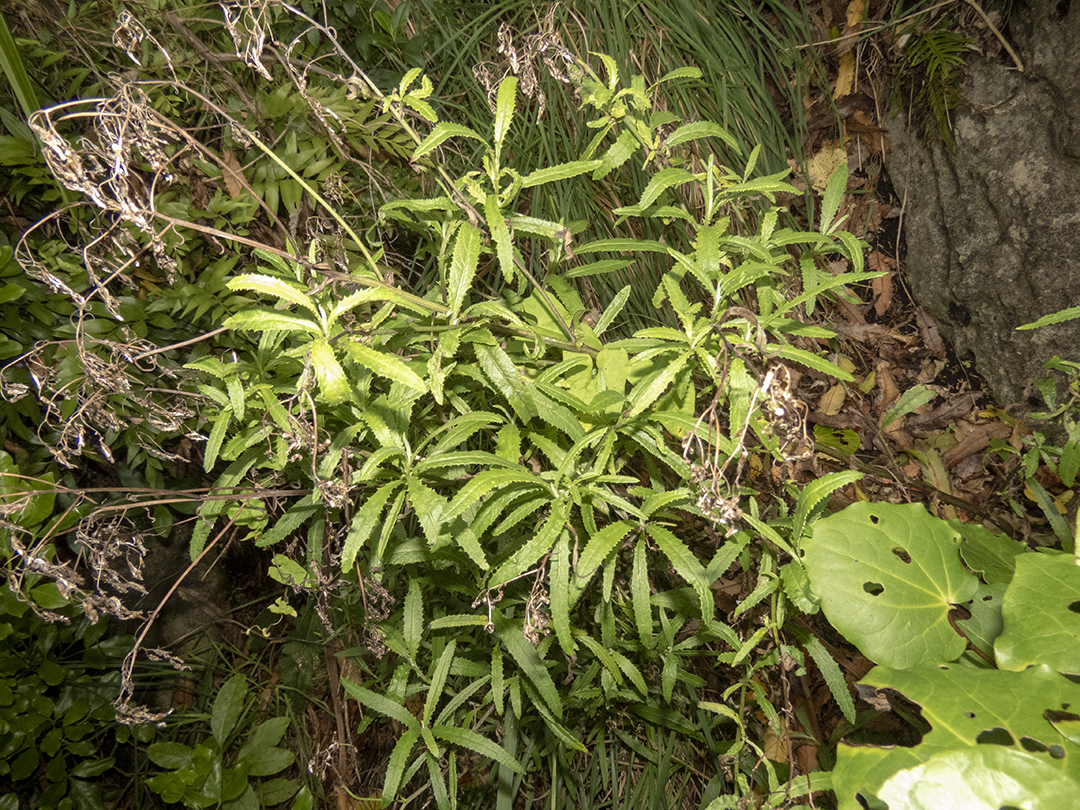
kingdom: Plantae
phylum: Tracheophyta
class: Magnoliopsida
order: Asterales
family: Asteraceae
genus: Senecio
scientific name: Senecio minimus
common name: Toothed fireweed
